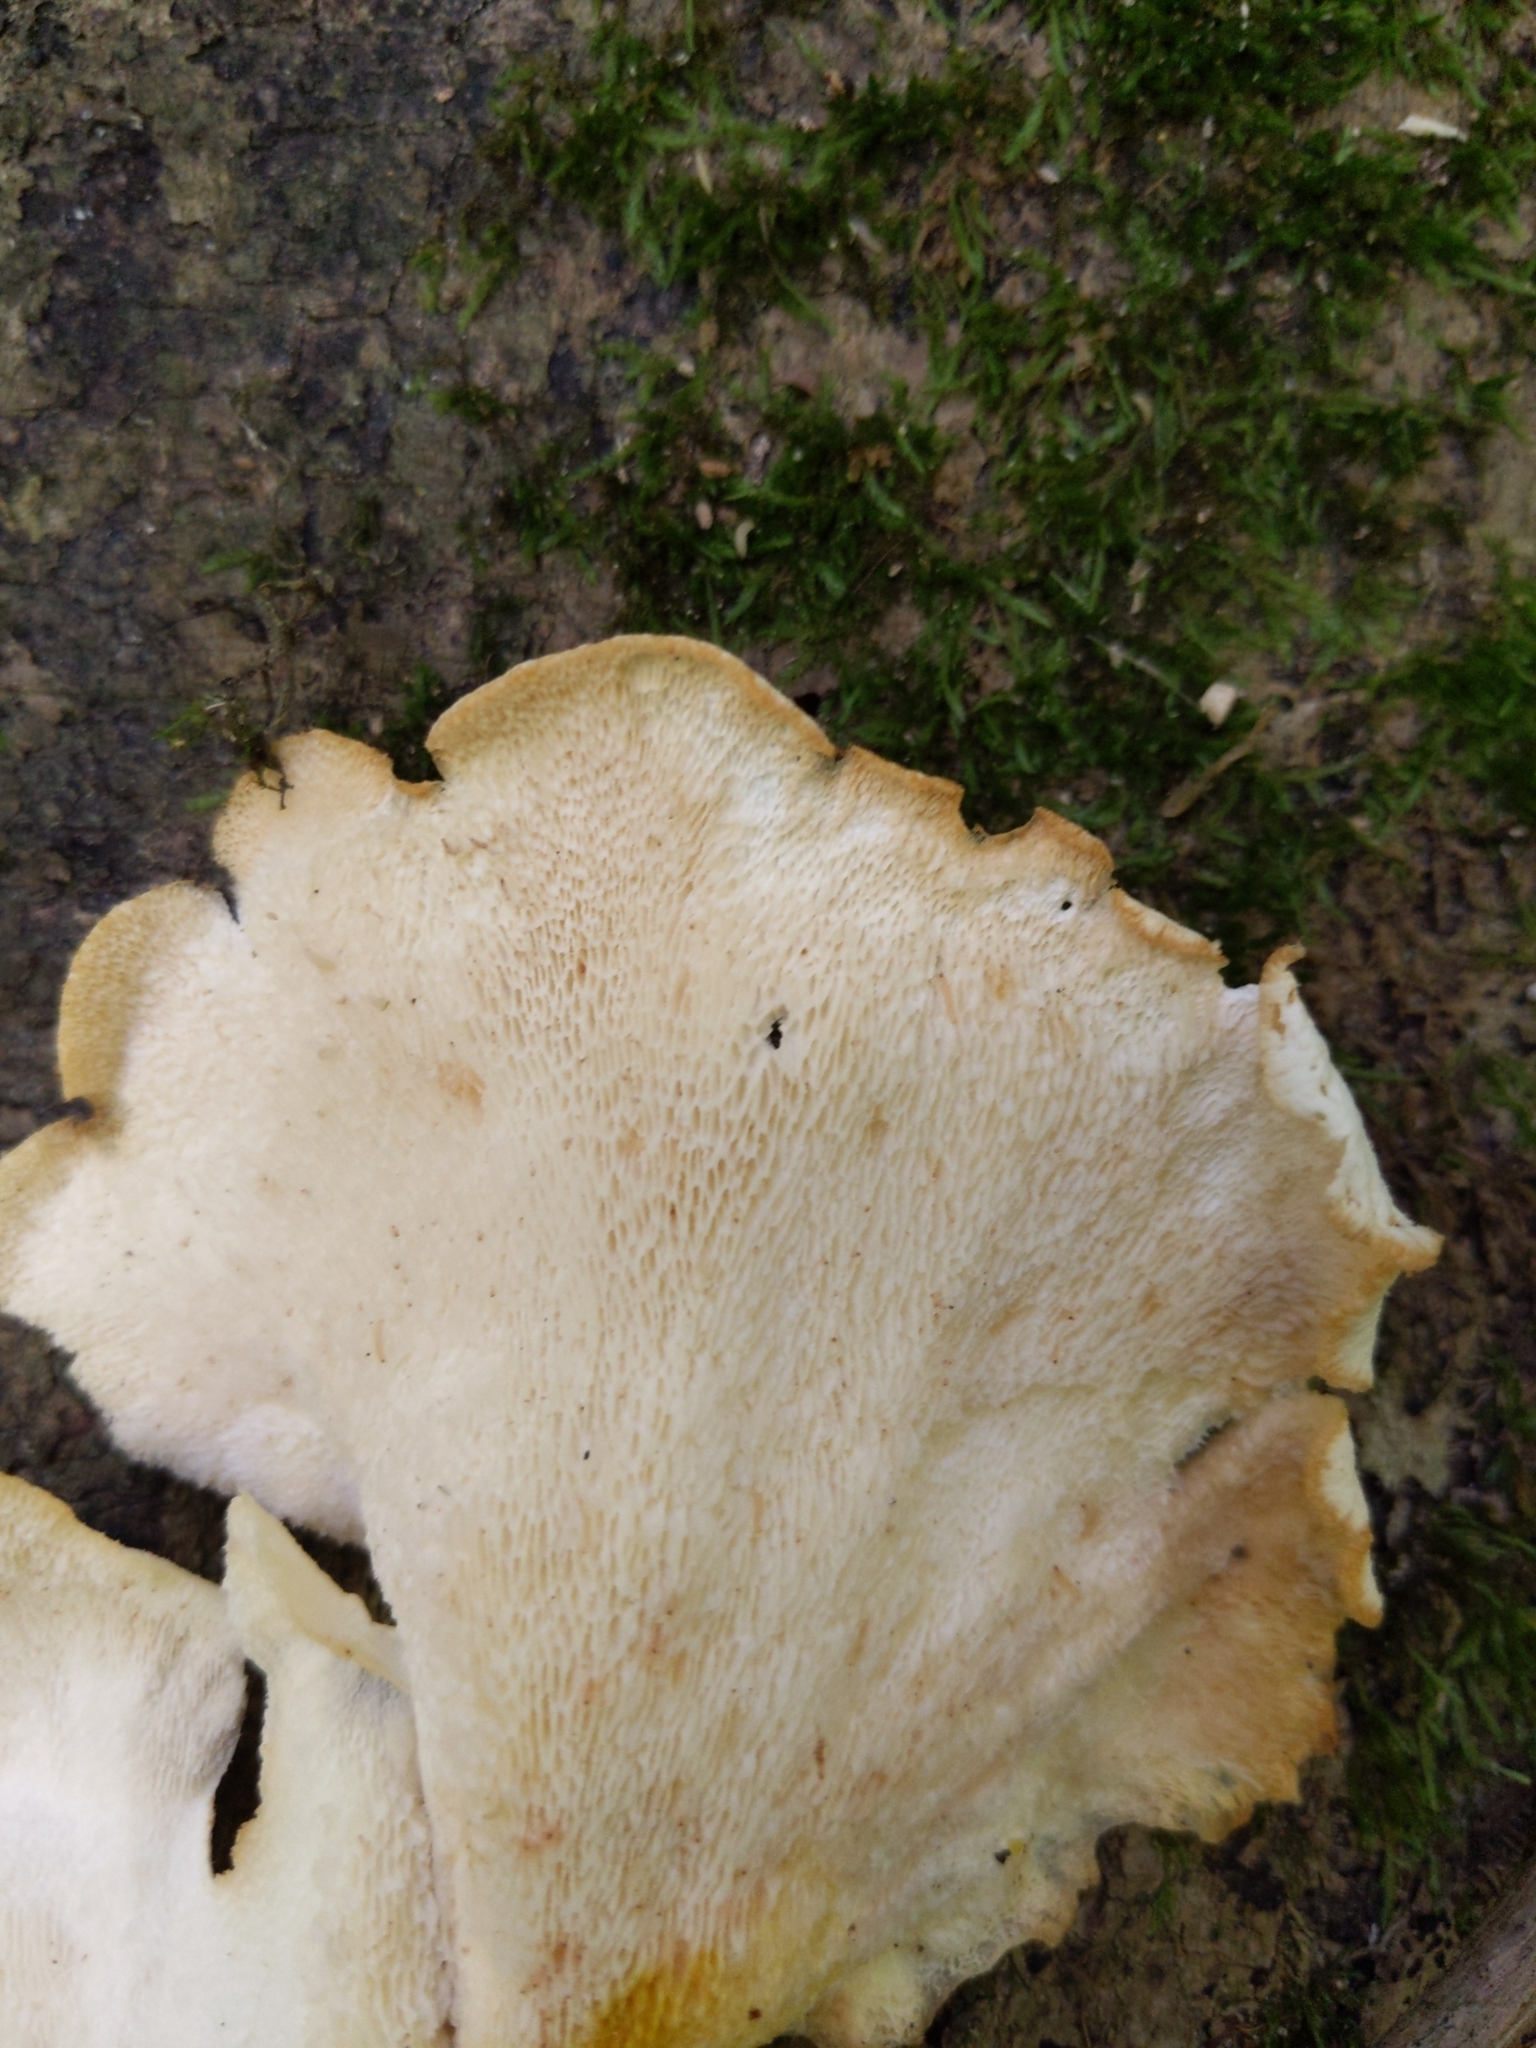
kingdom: Fungi
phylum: Basidiomycota
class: Agaricomycetes
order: Polyporales
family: Polyporaceae
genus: Favolus
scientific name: Favolus tenuiculus
